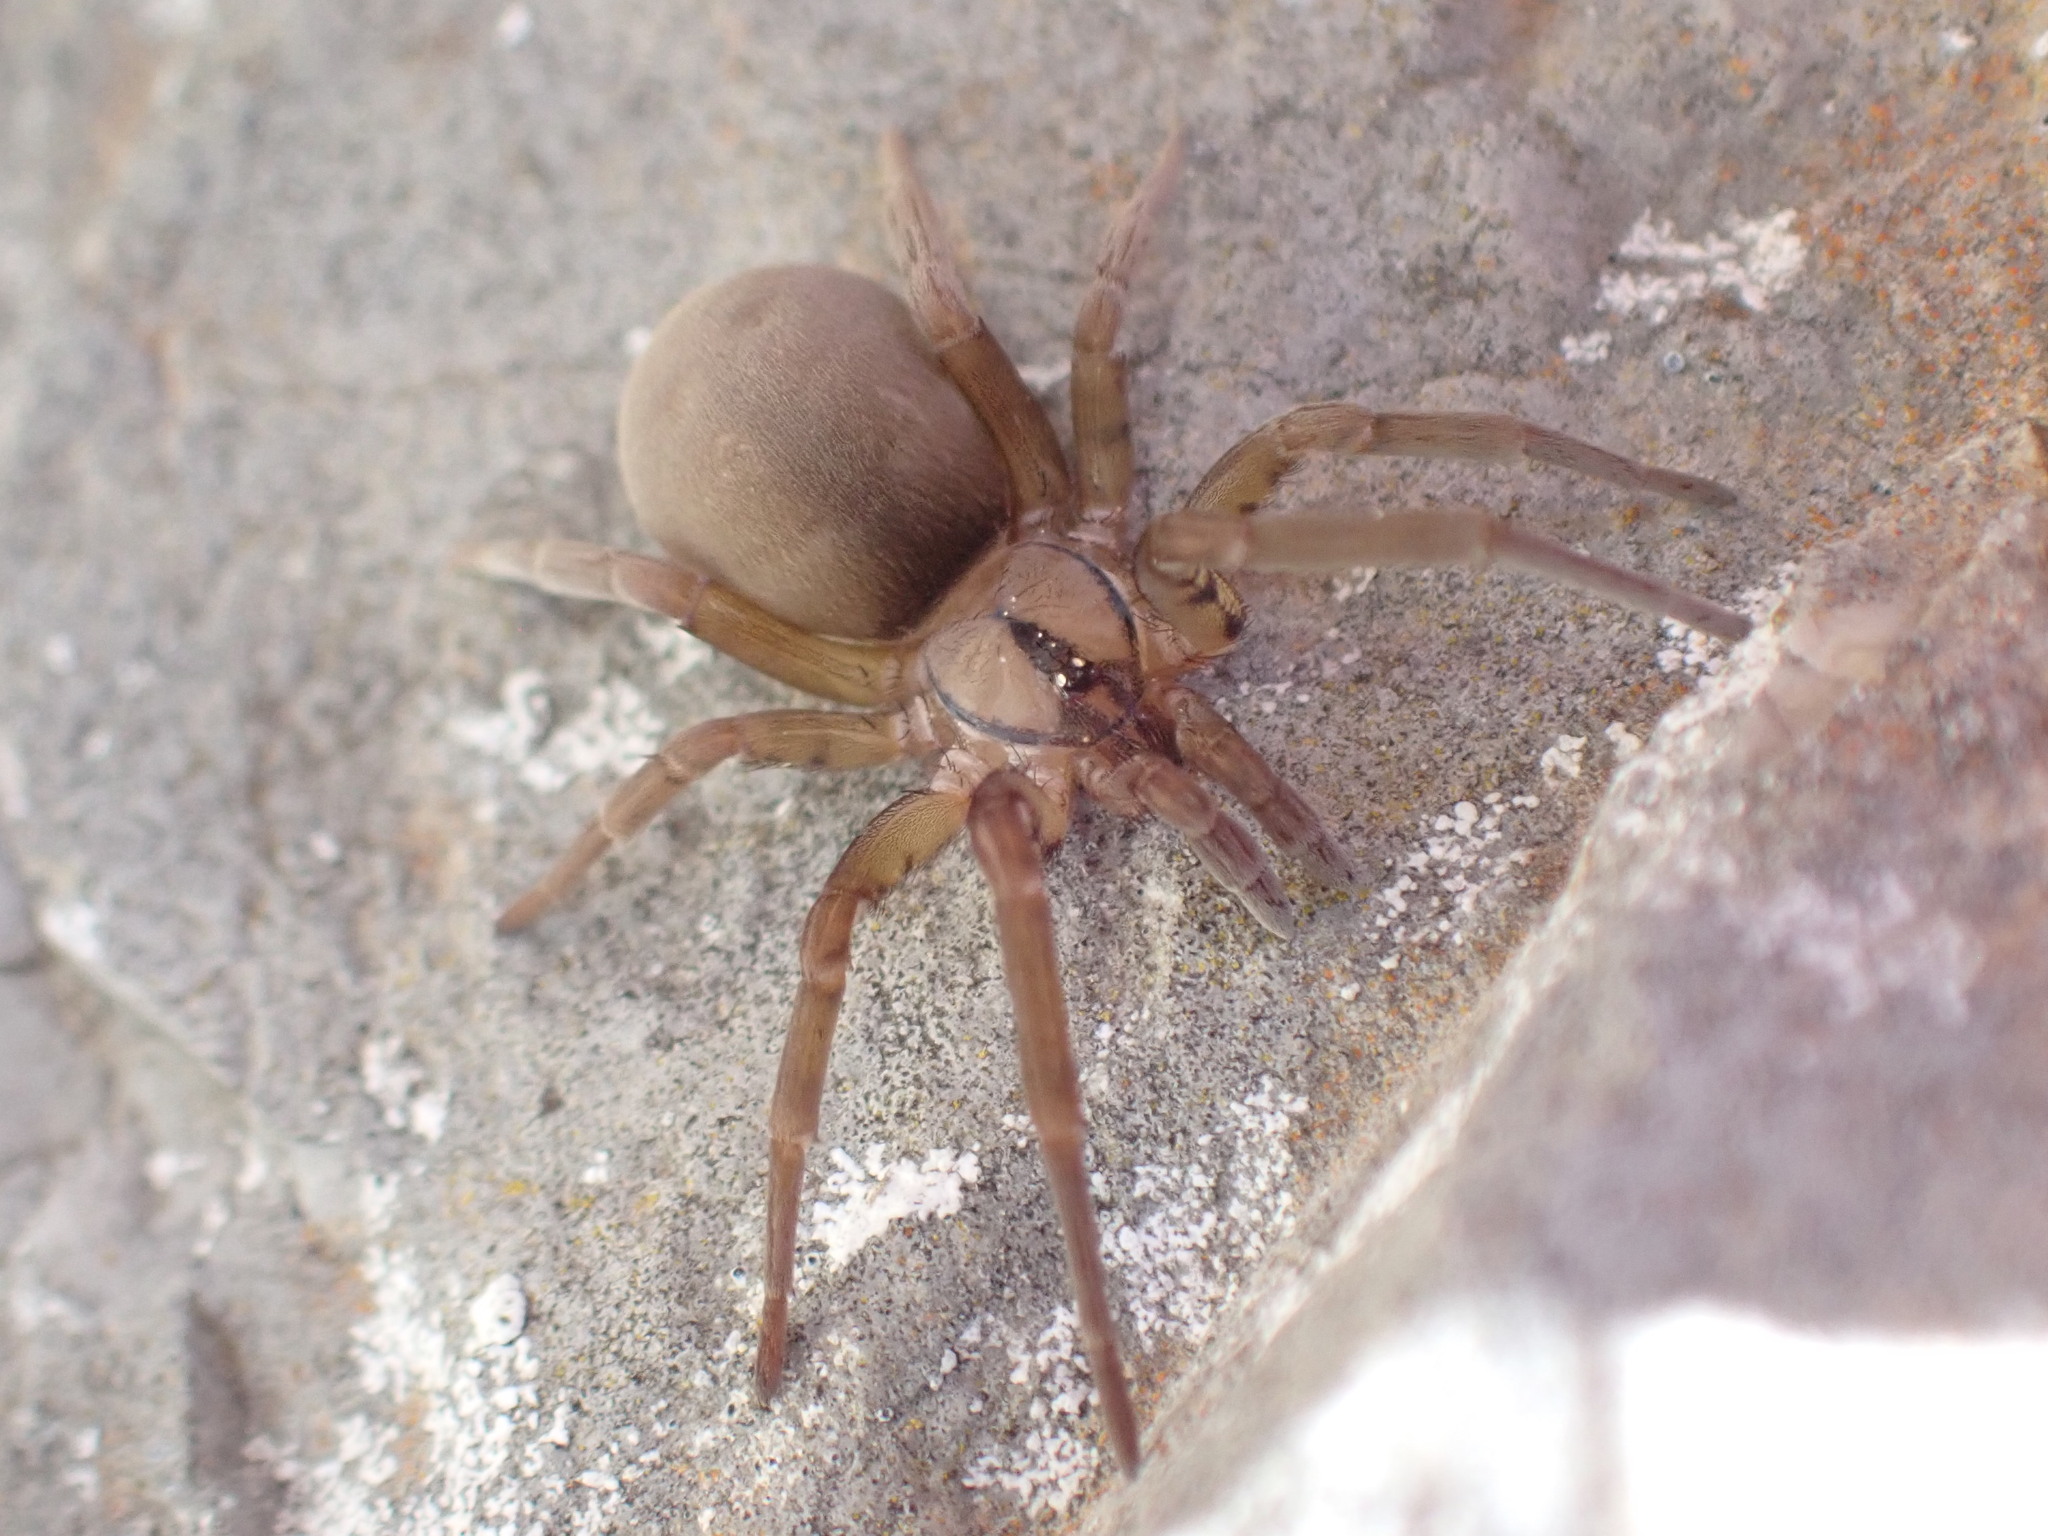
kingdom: Animalia
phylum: Arthropoda
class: Arachnida
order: Araneae
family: Filistatidae
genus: Filistata
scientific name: Filistata insidiatrix
